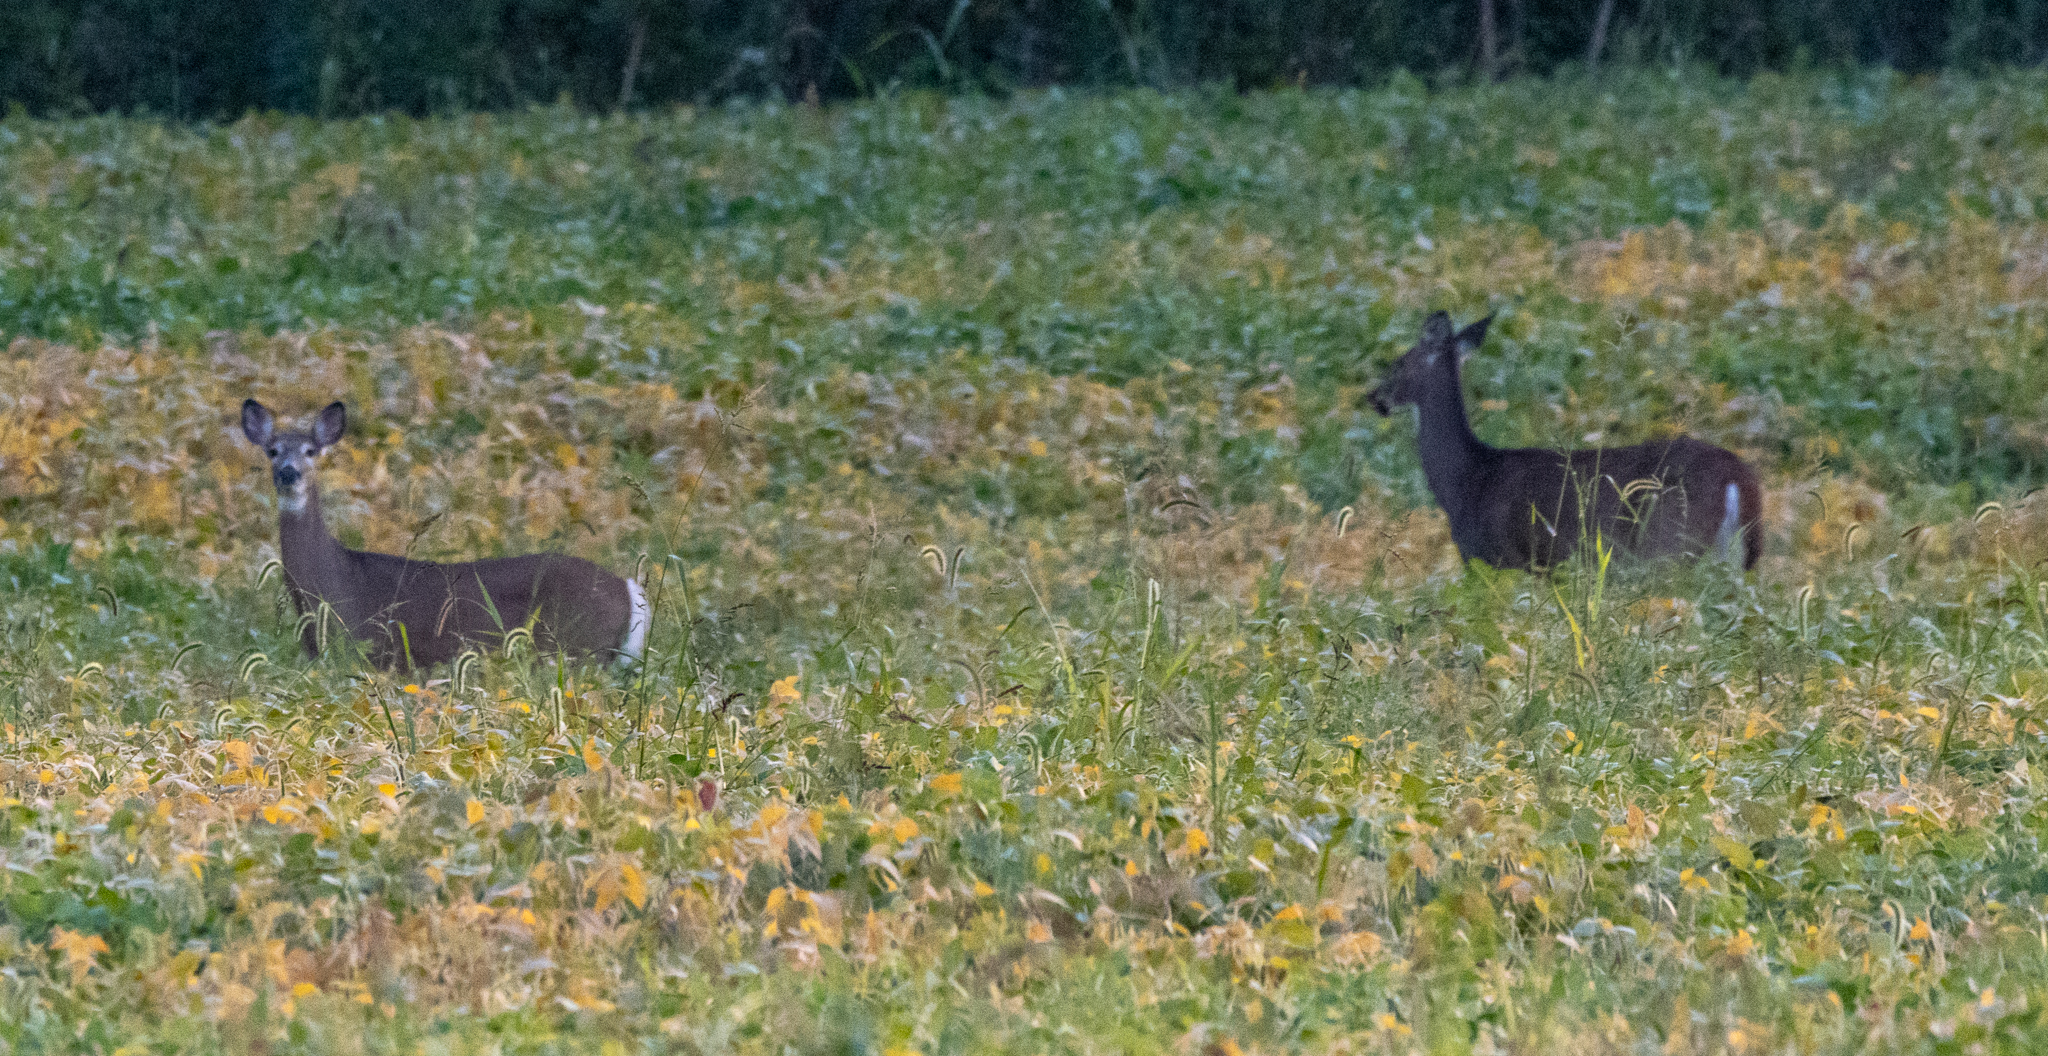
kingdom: Animalia
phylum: Chordata
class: Mammalia
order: Artiodactyla
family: Cervidae
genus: Odocoileus
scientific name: Odocoileus virginianus
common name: White-tailed deer
